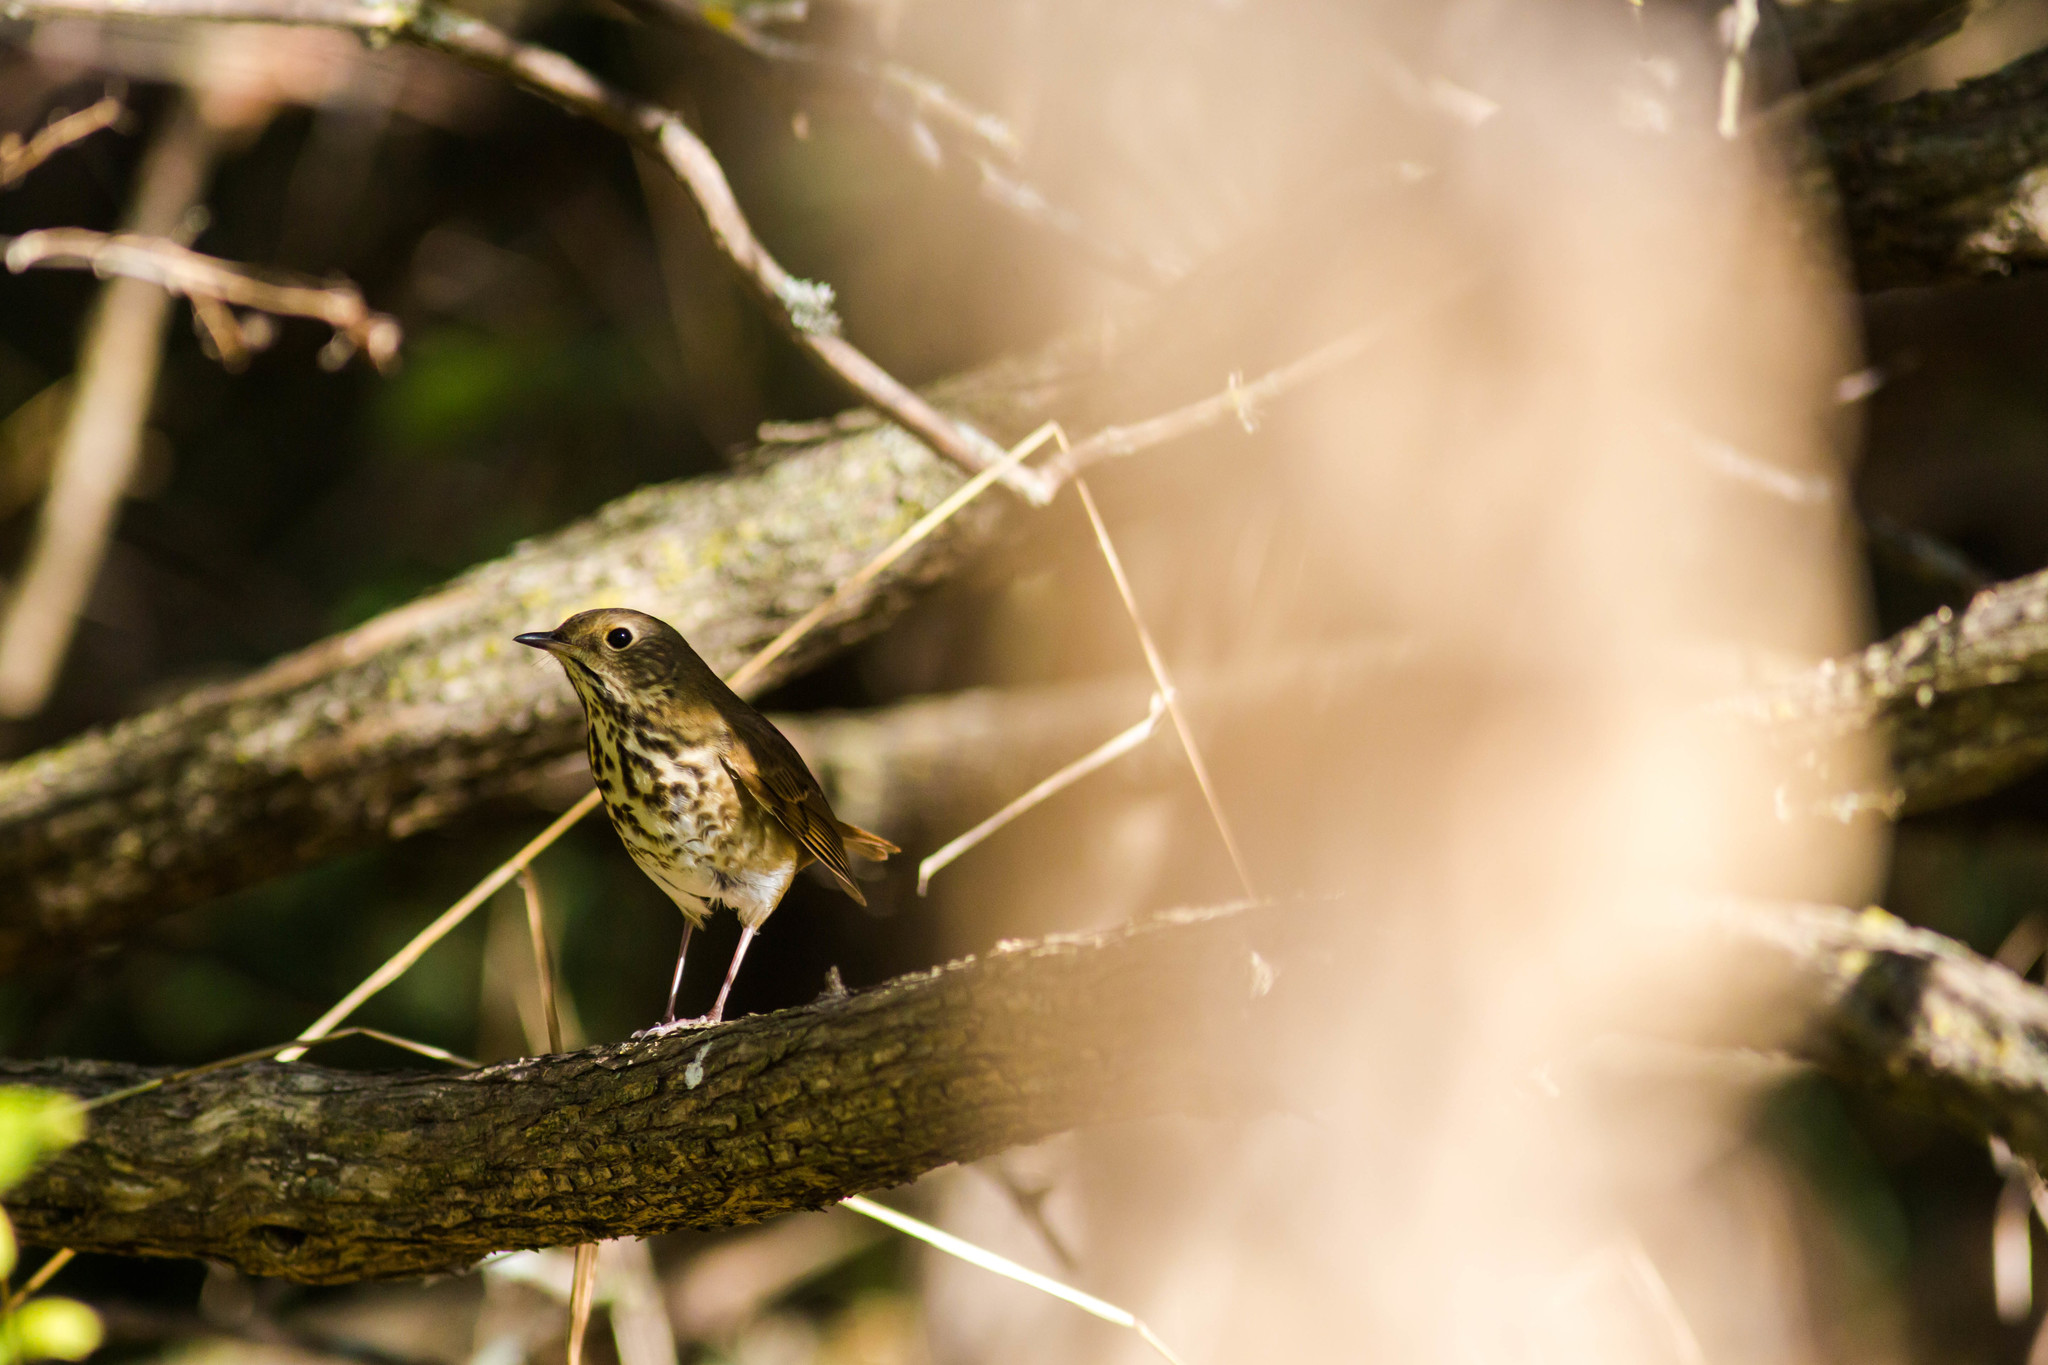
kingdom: Animalia
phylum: Chordata
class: Aves
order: Passeriformes
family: Turdidae
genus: Catharus
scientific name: Catharus guttatus
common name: Hermit thrush
